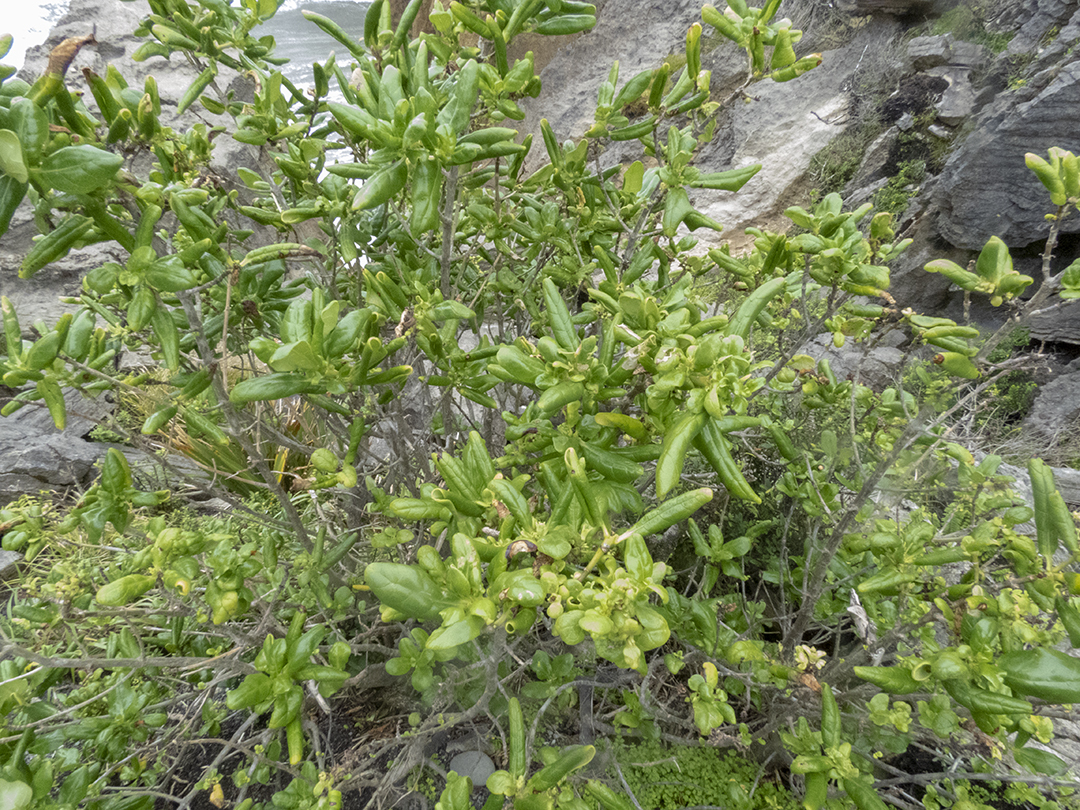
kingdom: Plantae
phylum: Tracheophyta
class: Magnoliopsida
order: Gentianales
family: Rubiaceae
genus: Coprosma
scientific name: Coprosma repens
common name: Tree bedstraw
